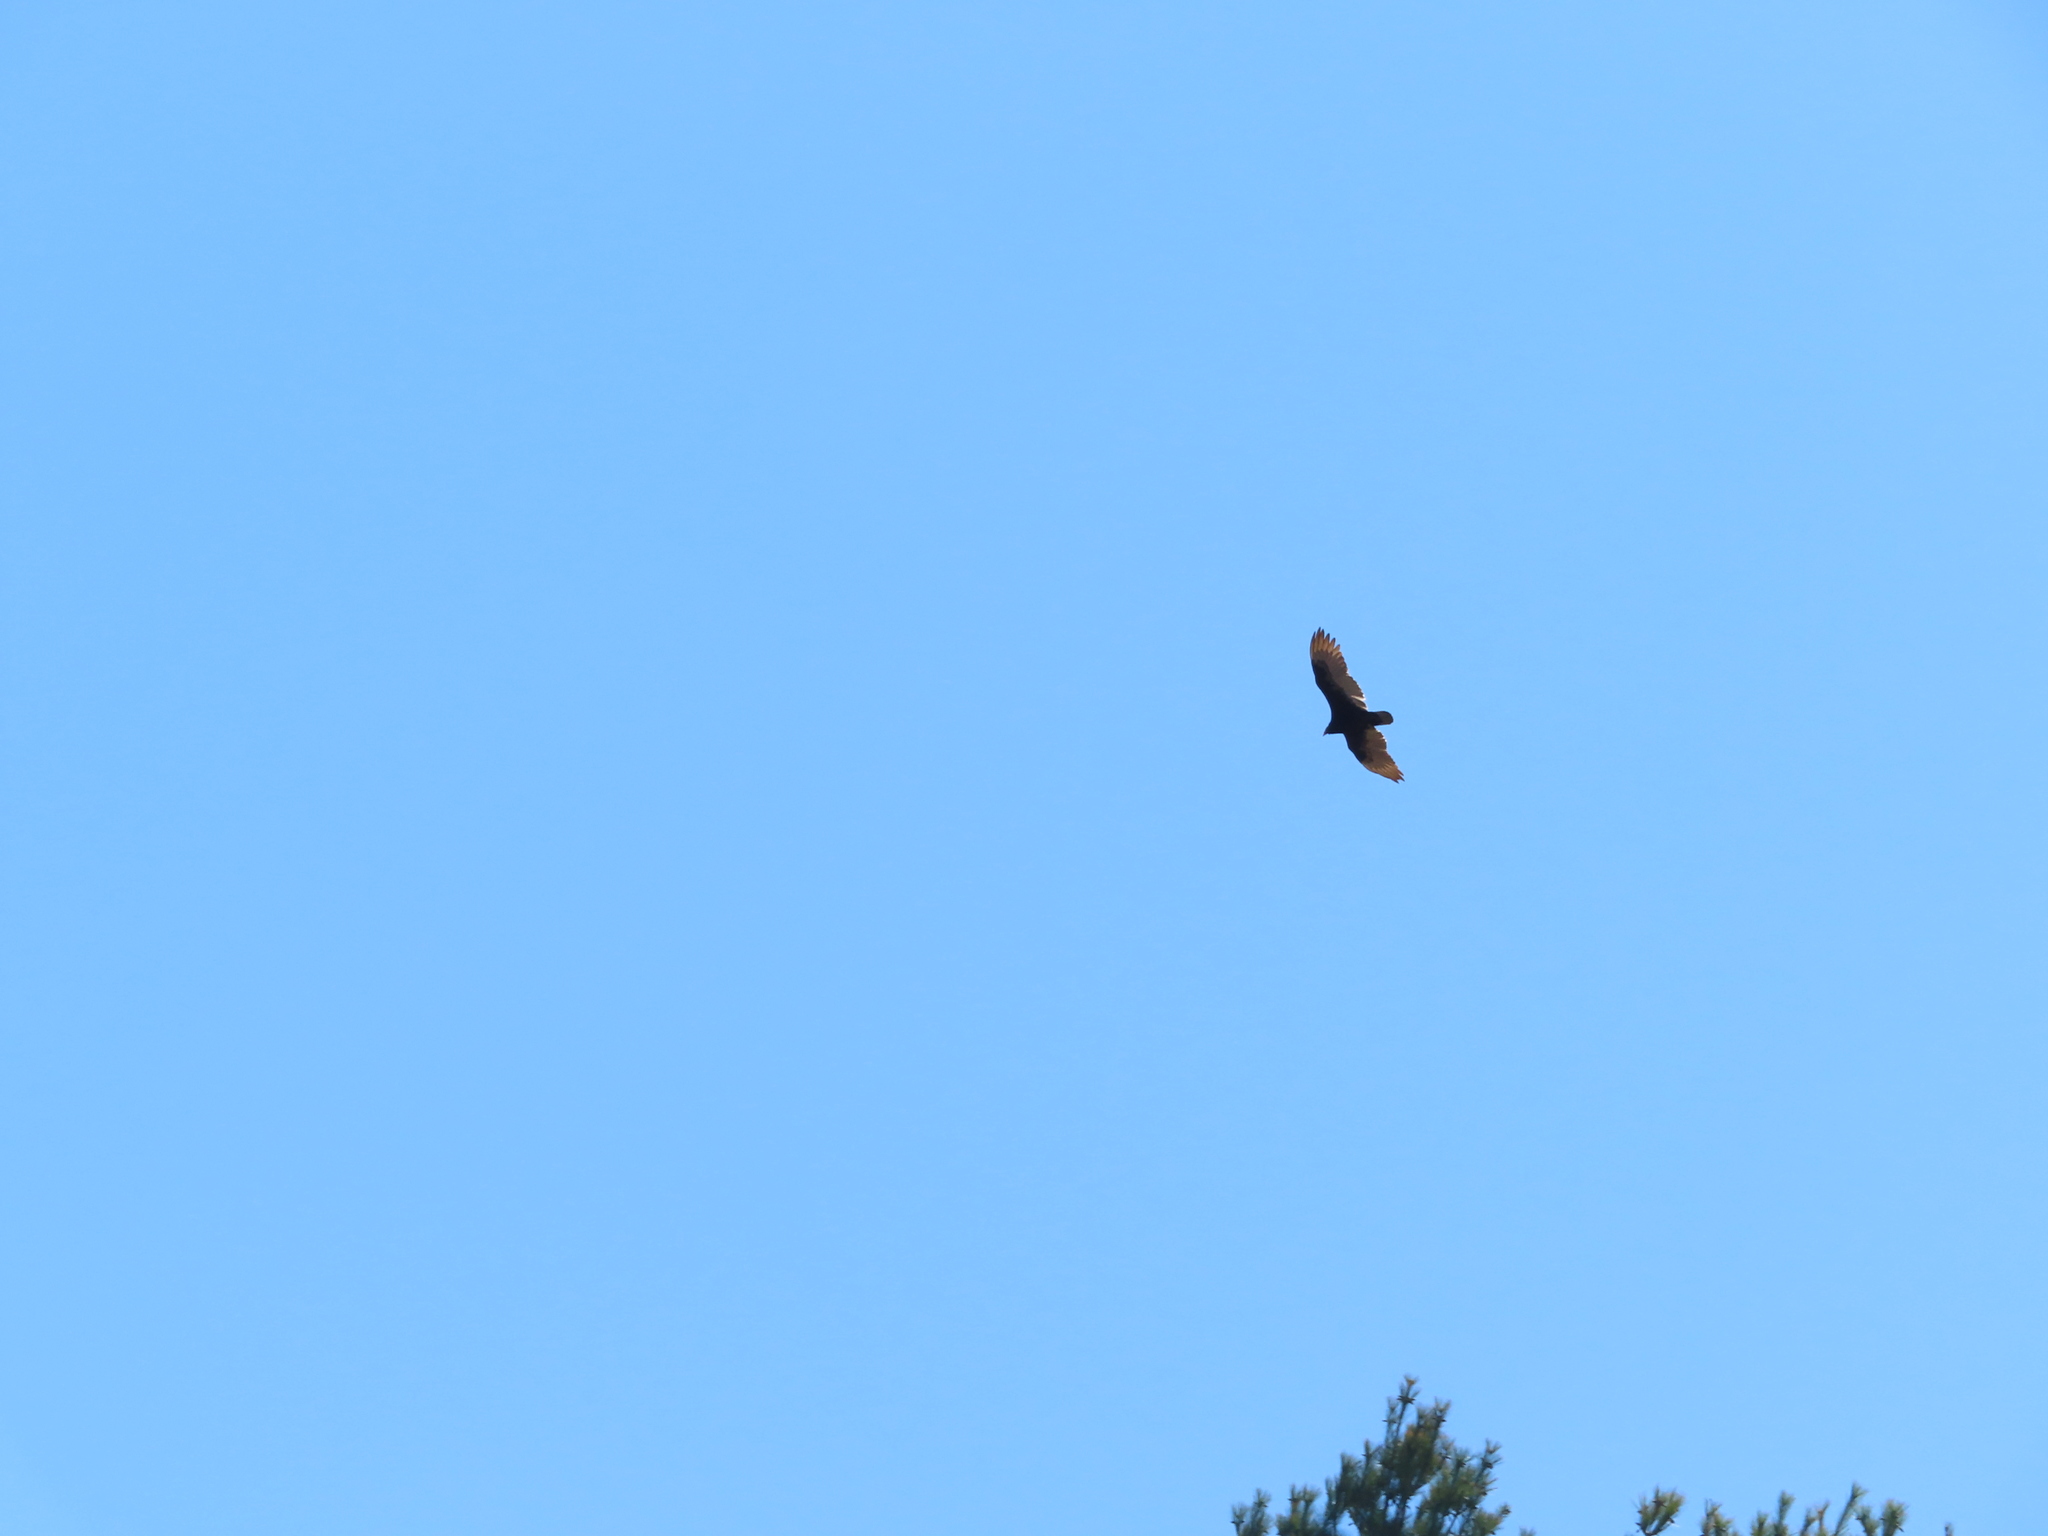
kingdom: Animalia
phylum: Chordata
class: Aves
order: Accipitriformes
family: Cathartidae
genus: Cathartes
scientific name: Cathartes aura
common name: Turkey vulture
